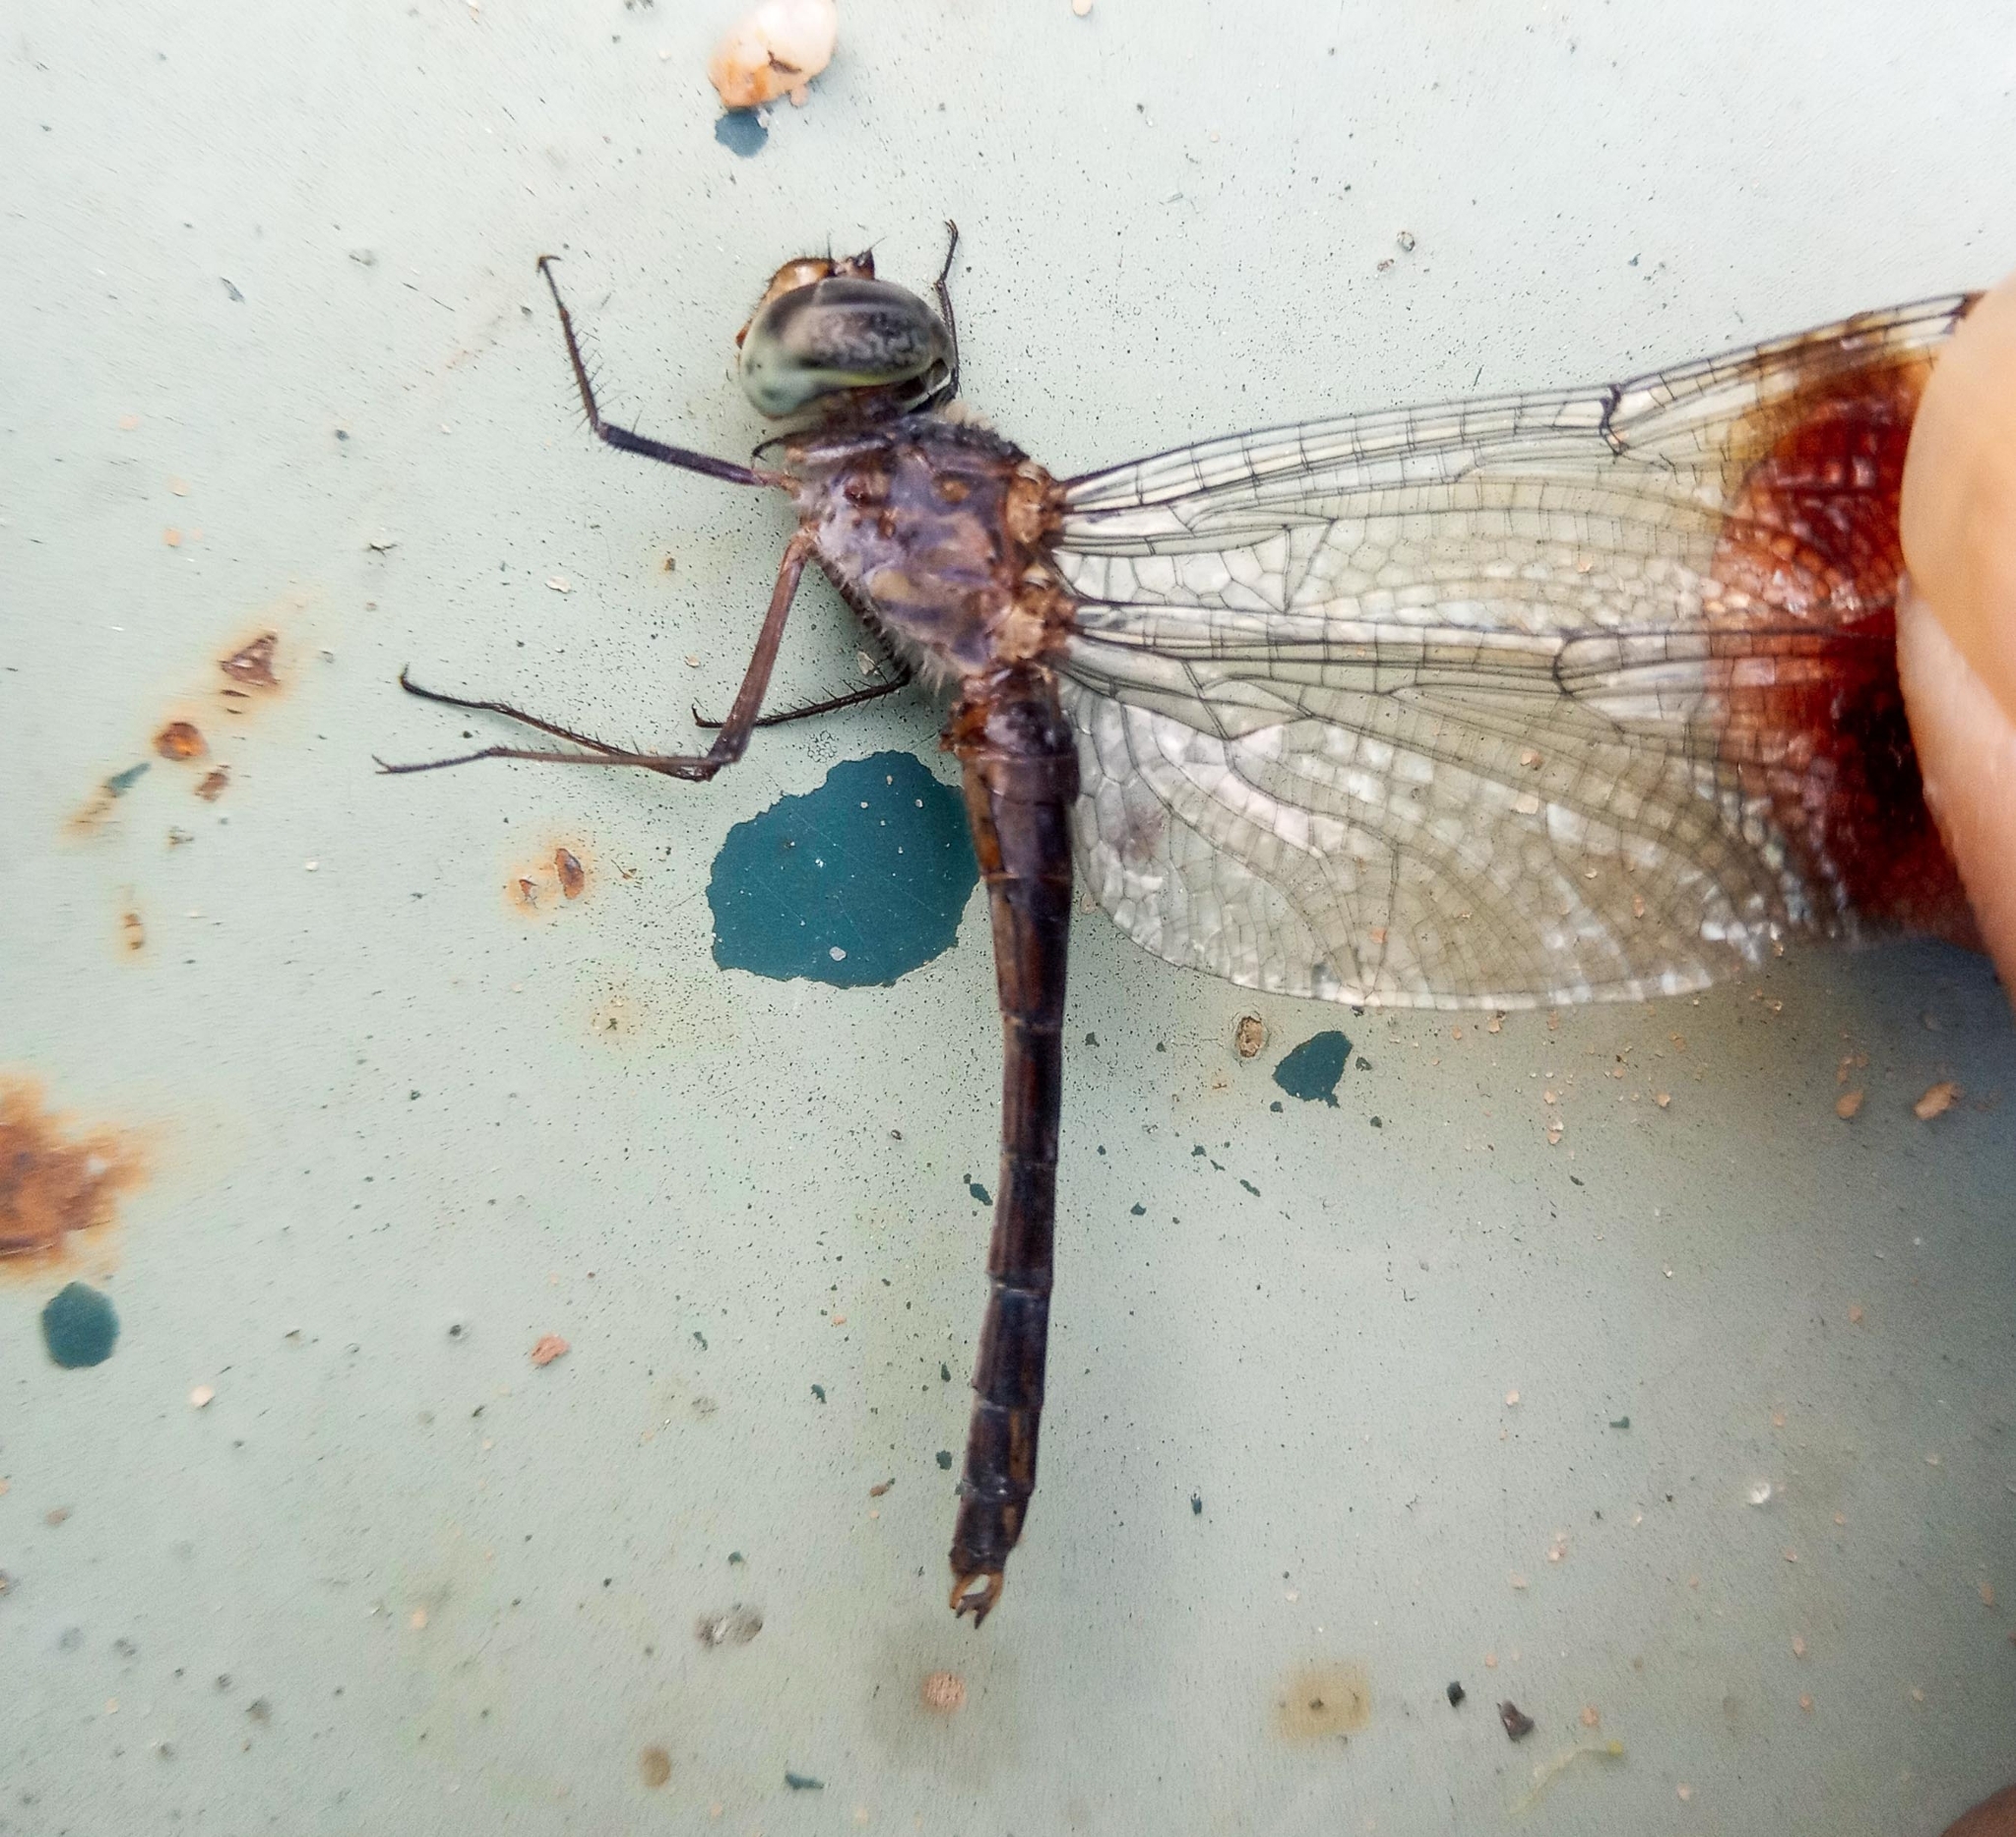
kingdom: Animalia
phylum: Arthropoda
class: Insecta
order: Odonata
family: Libellulidae
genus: Parazyxomma
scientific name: Parazyxomma flavicans
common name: Banded duskdarter
